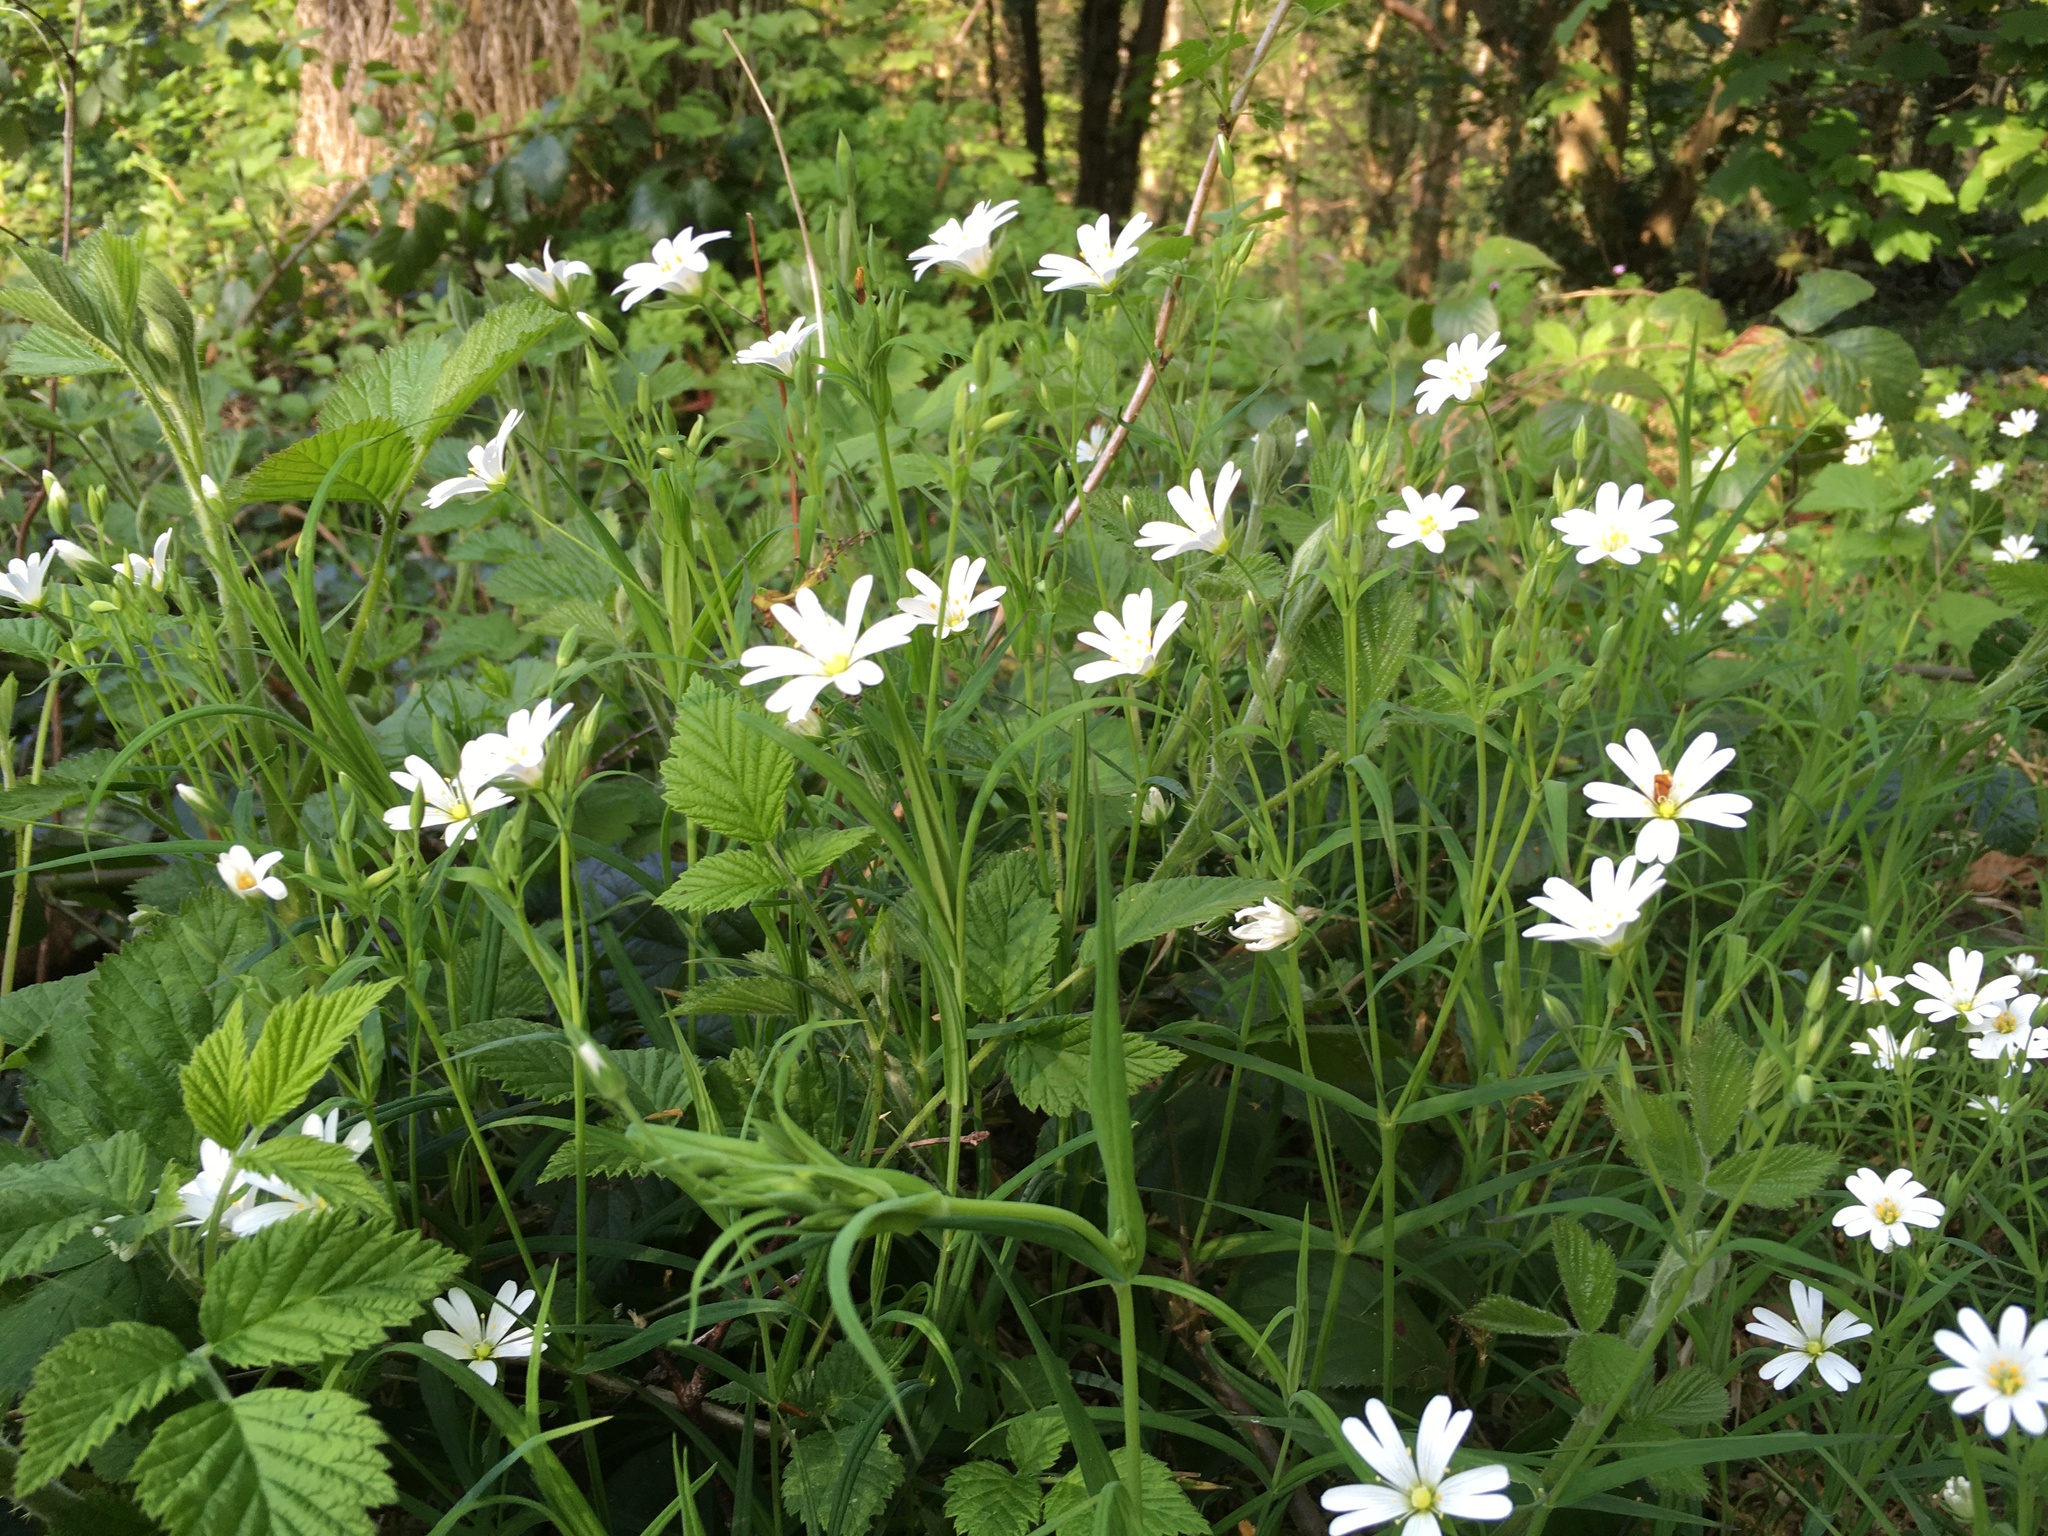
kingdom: Plantae
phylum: Tracheophyta
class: Magnoliopsida
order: Caryophyllales
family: Caryophyllaceae
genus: Rabelera
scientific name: Rabelera holostea
